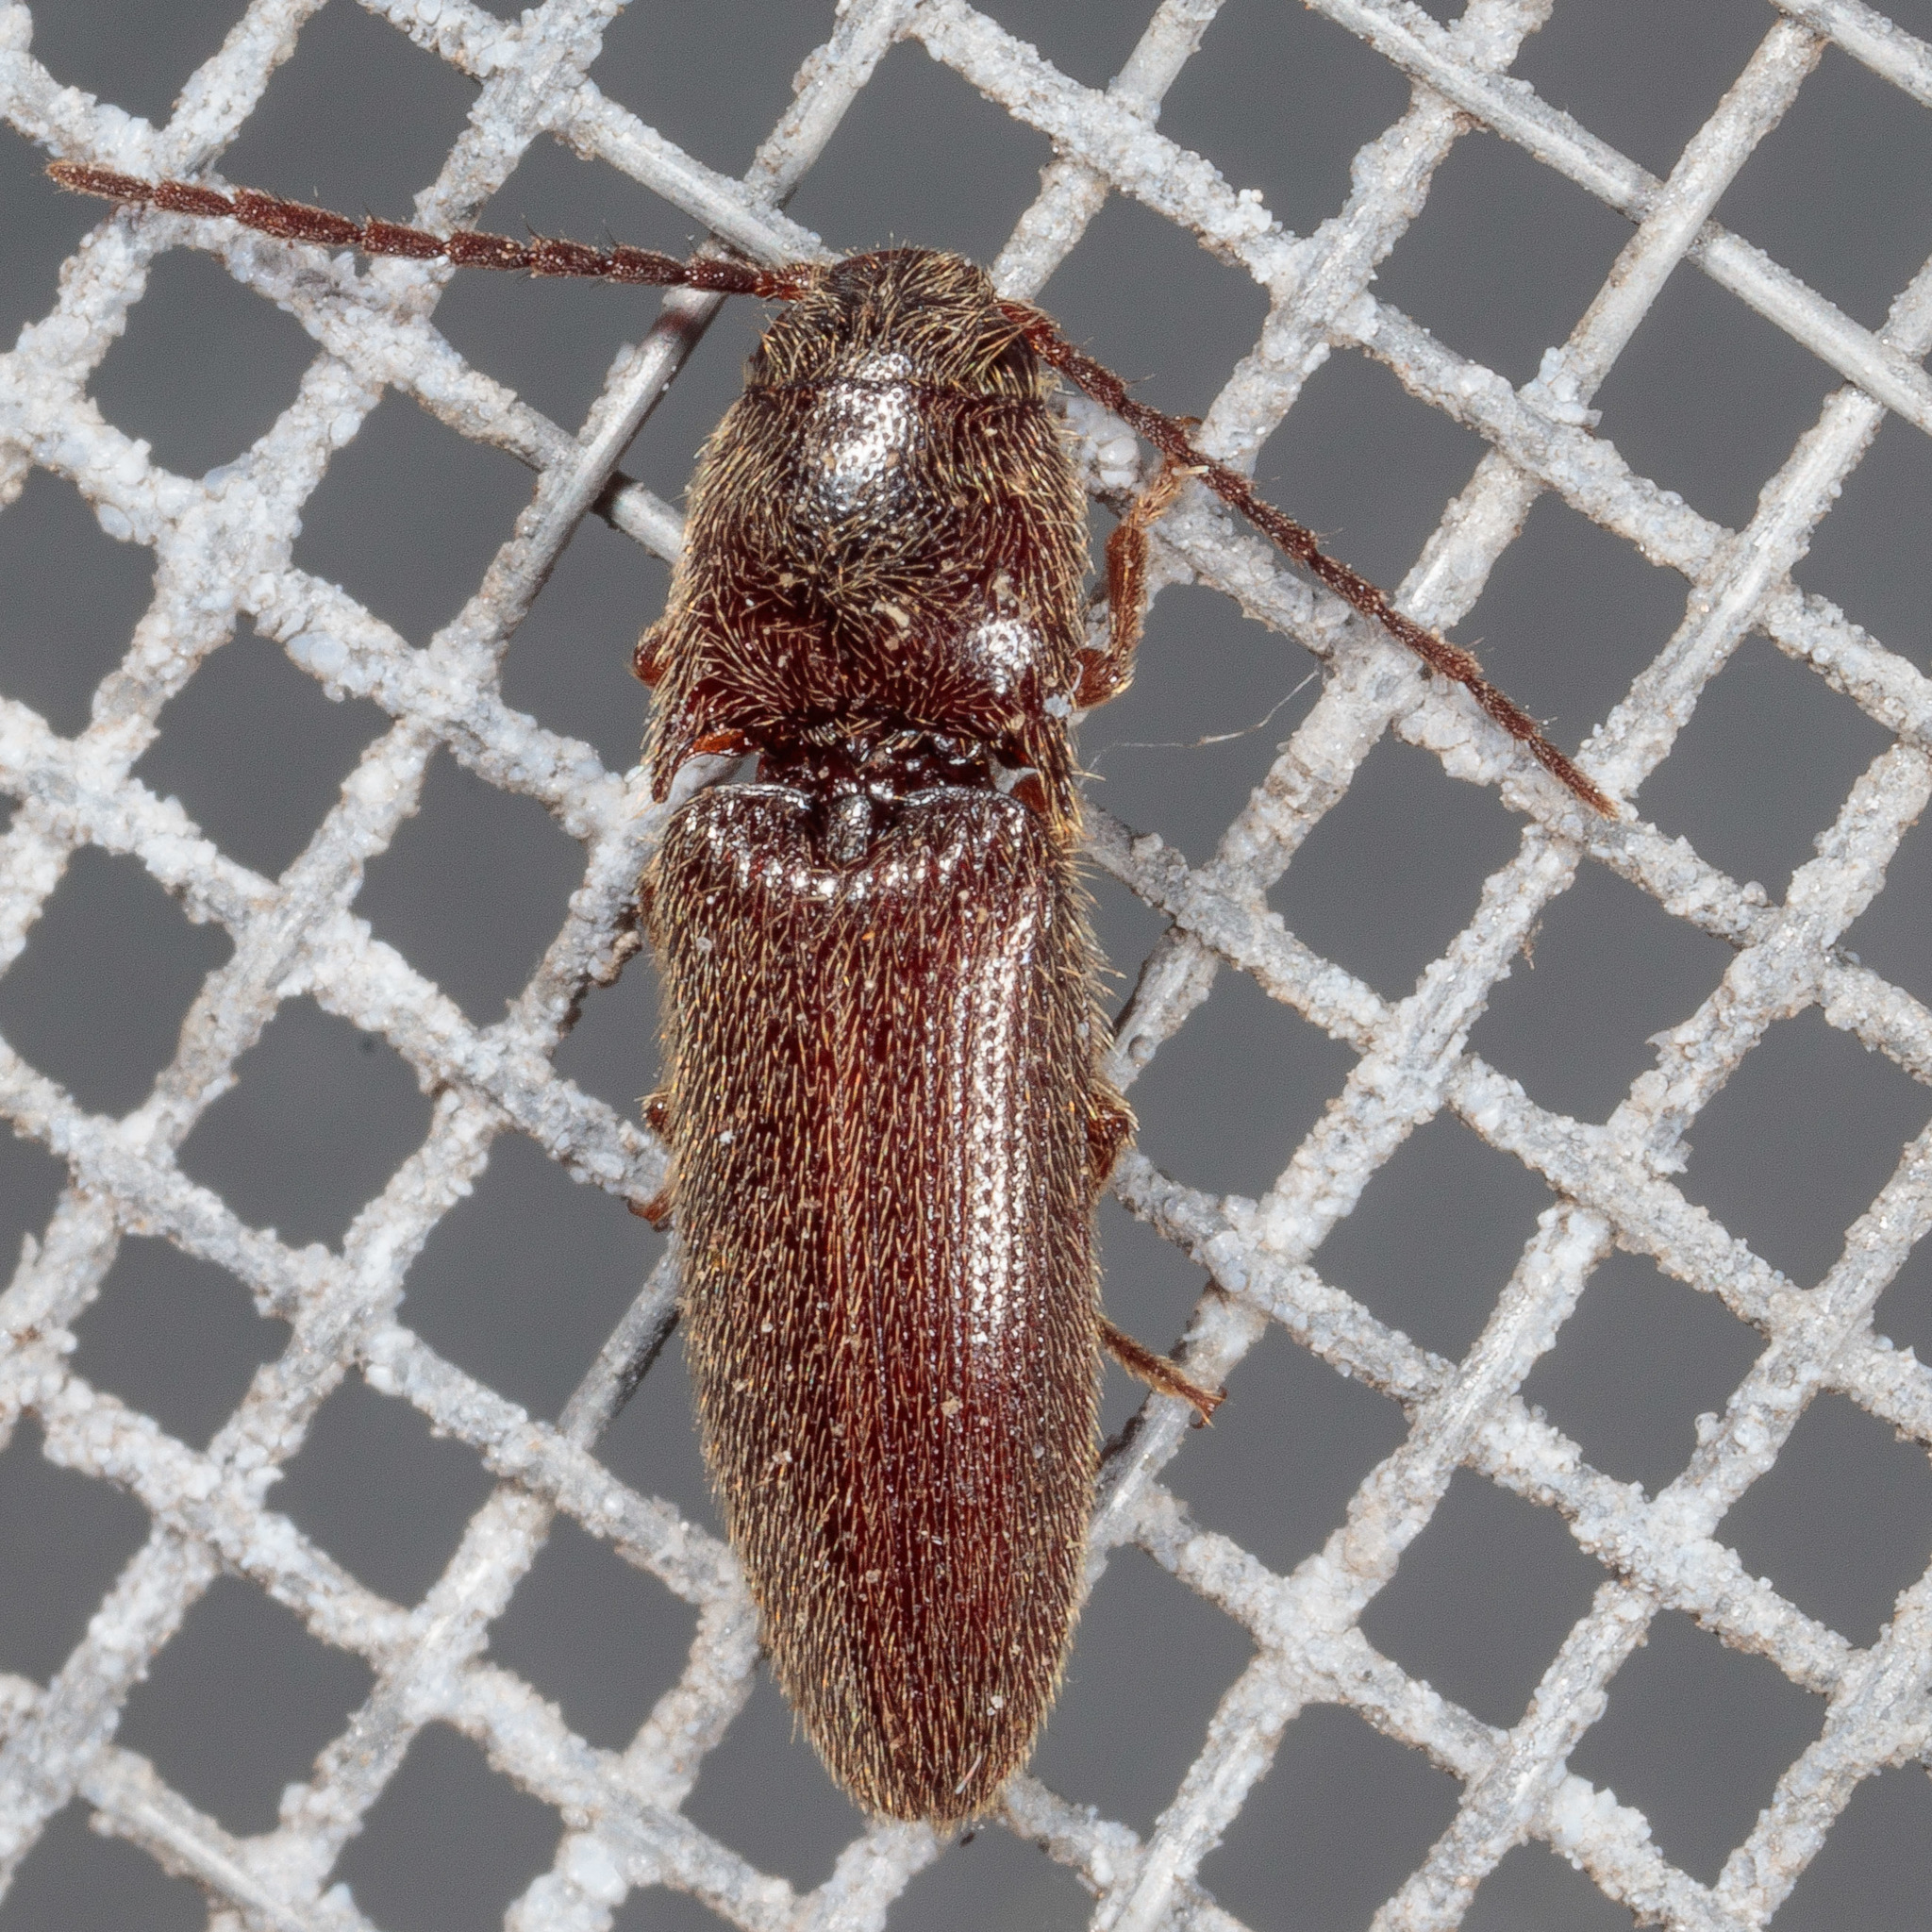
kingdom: Animalia
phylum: Arthropoda
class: Insecta
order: Coleoptera
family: Elateridae
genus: Dipropus
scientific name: Dipropus
